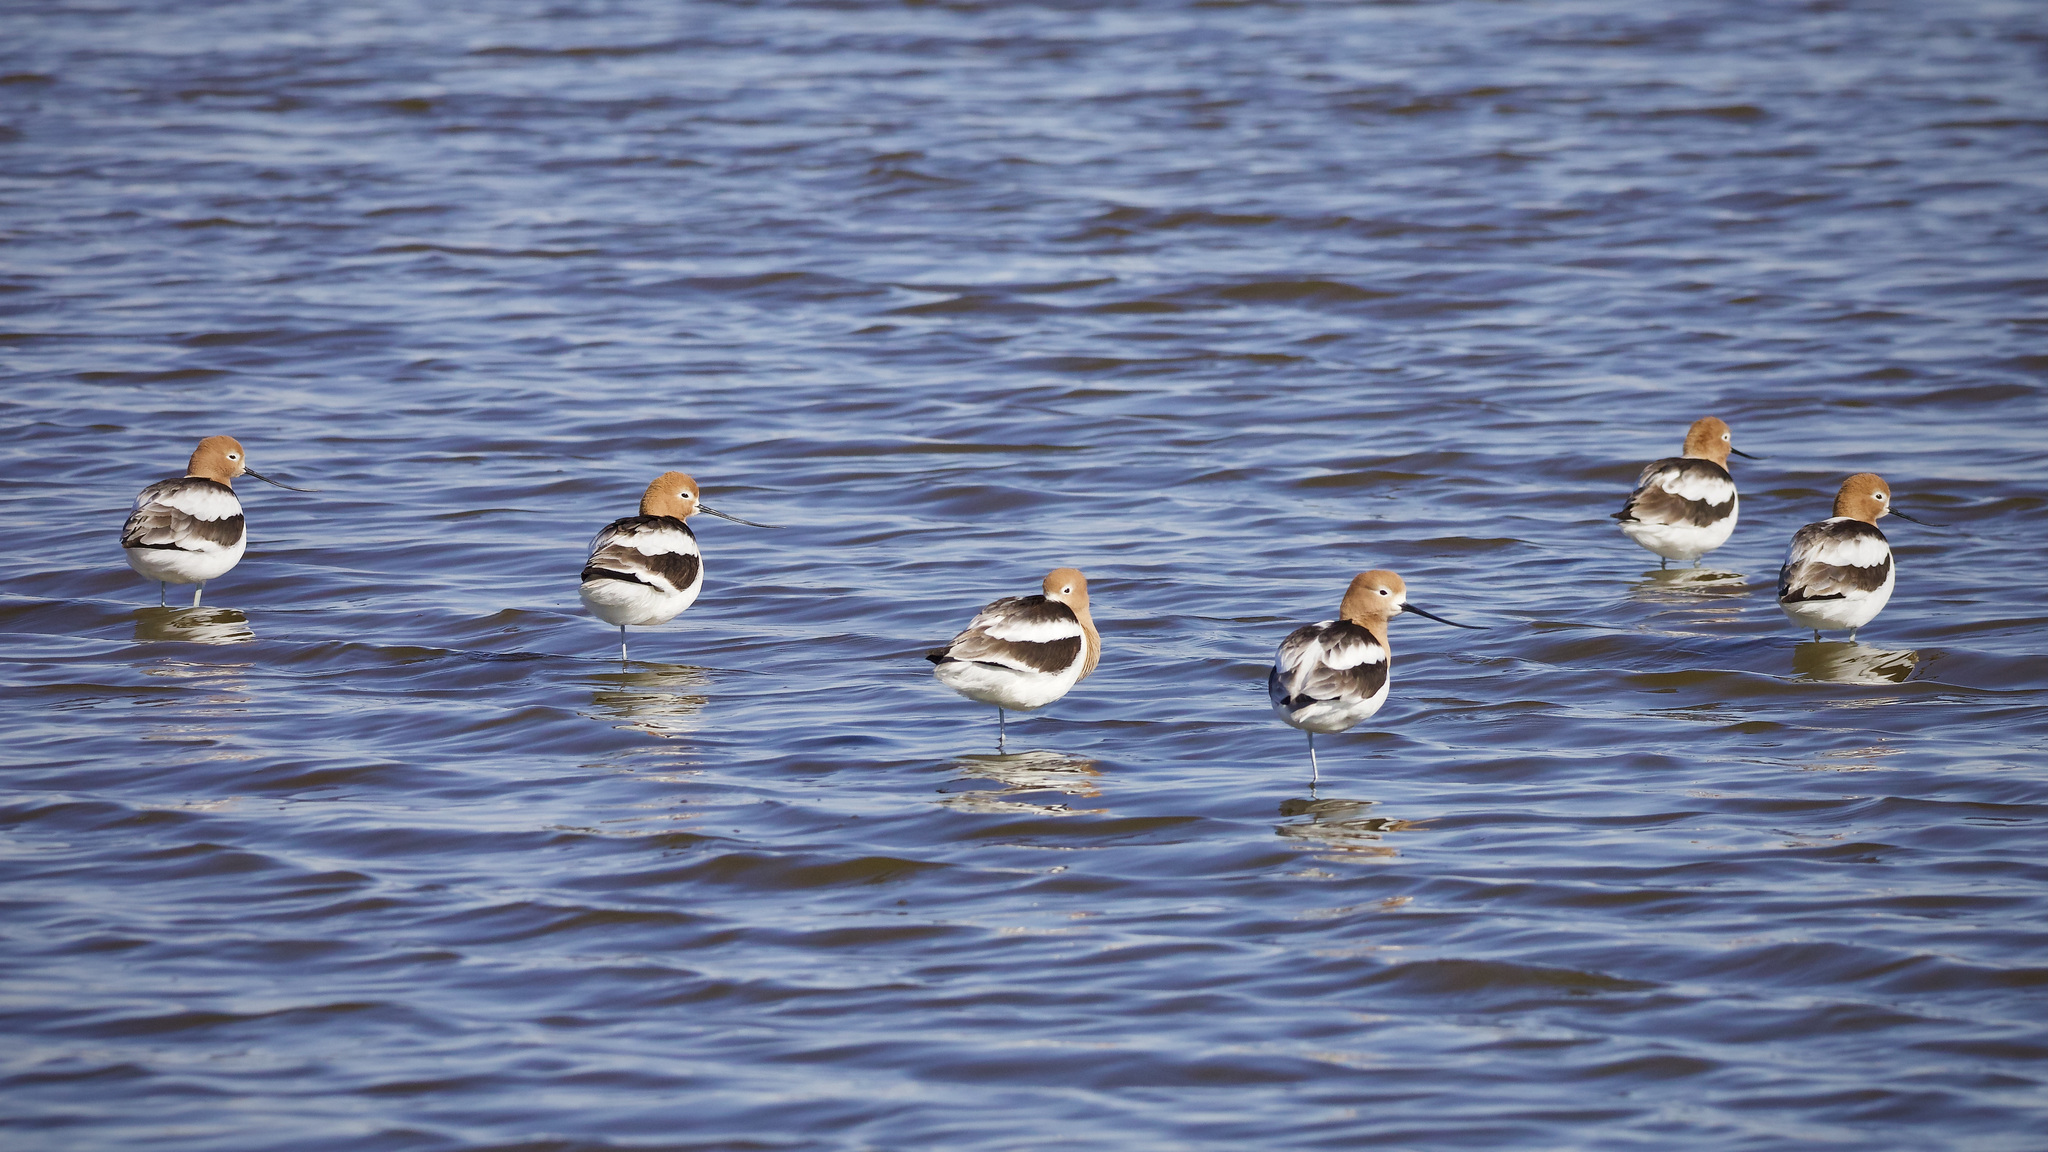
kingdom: Animalia
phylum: Chordata
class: Aves
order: Charadriiformes
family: Recurvirostridae
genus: Recurvirostra
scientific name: Recurvirostra americana
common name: American avocet
